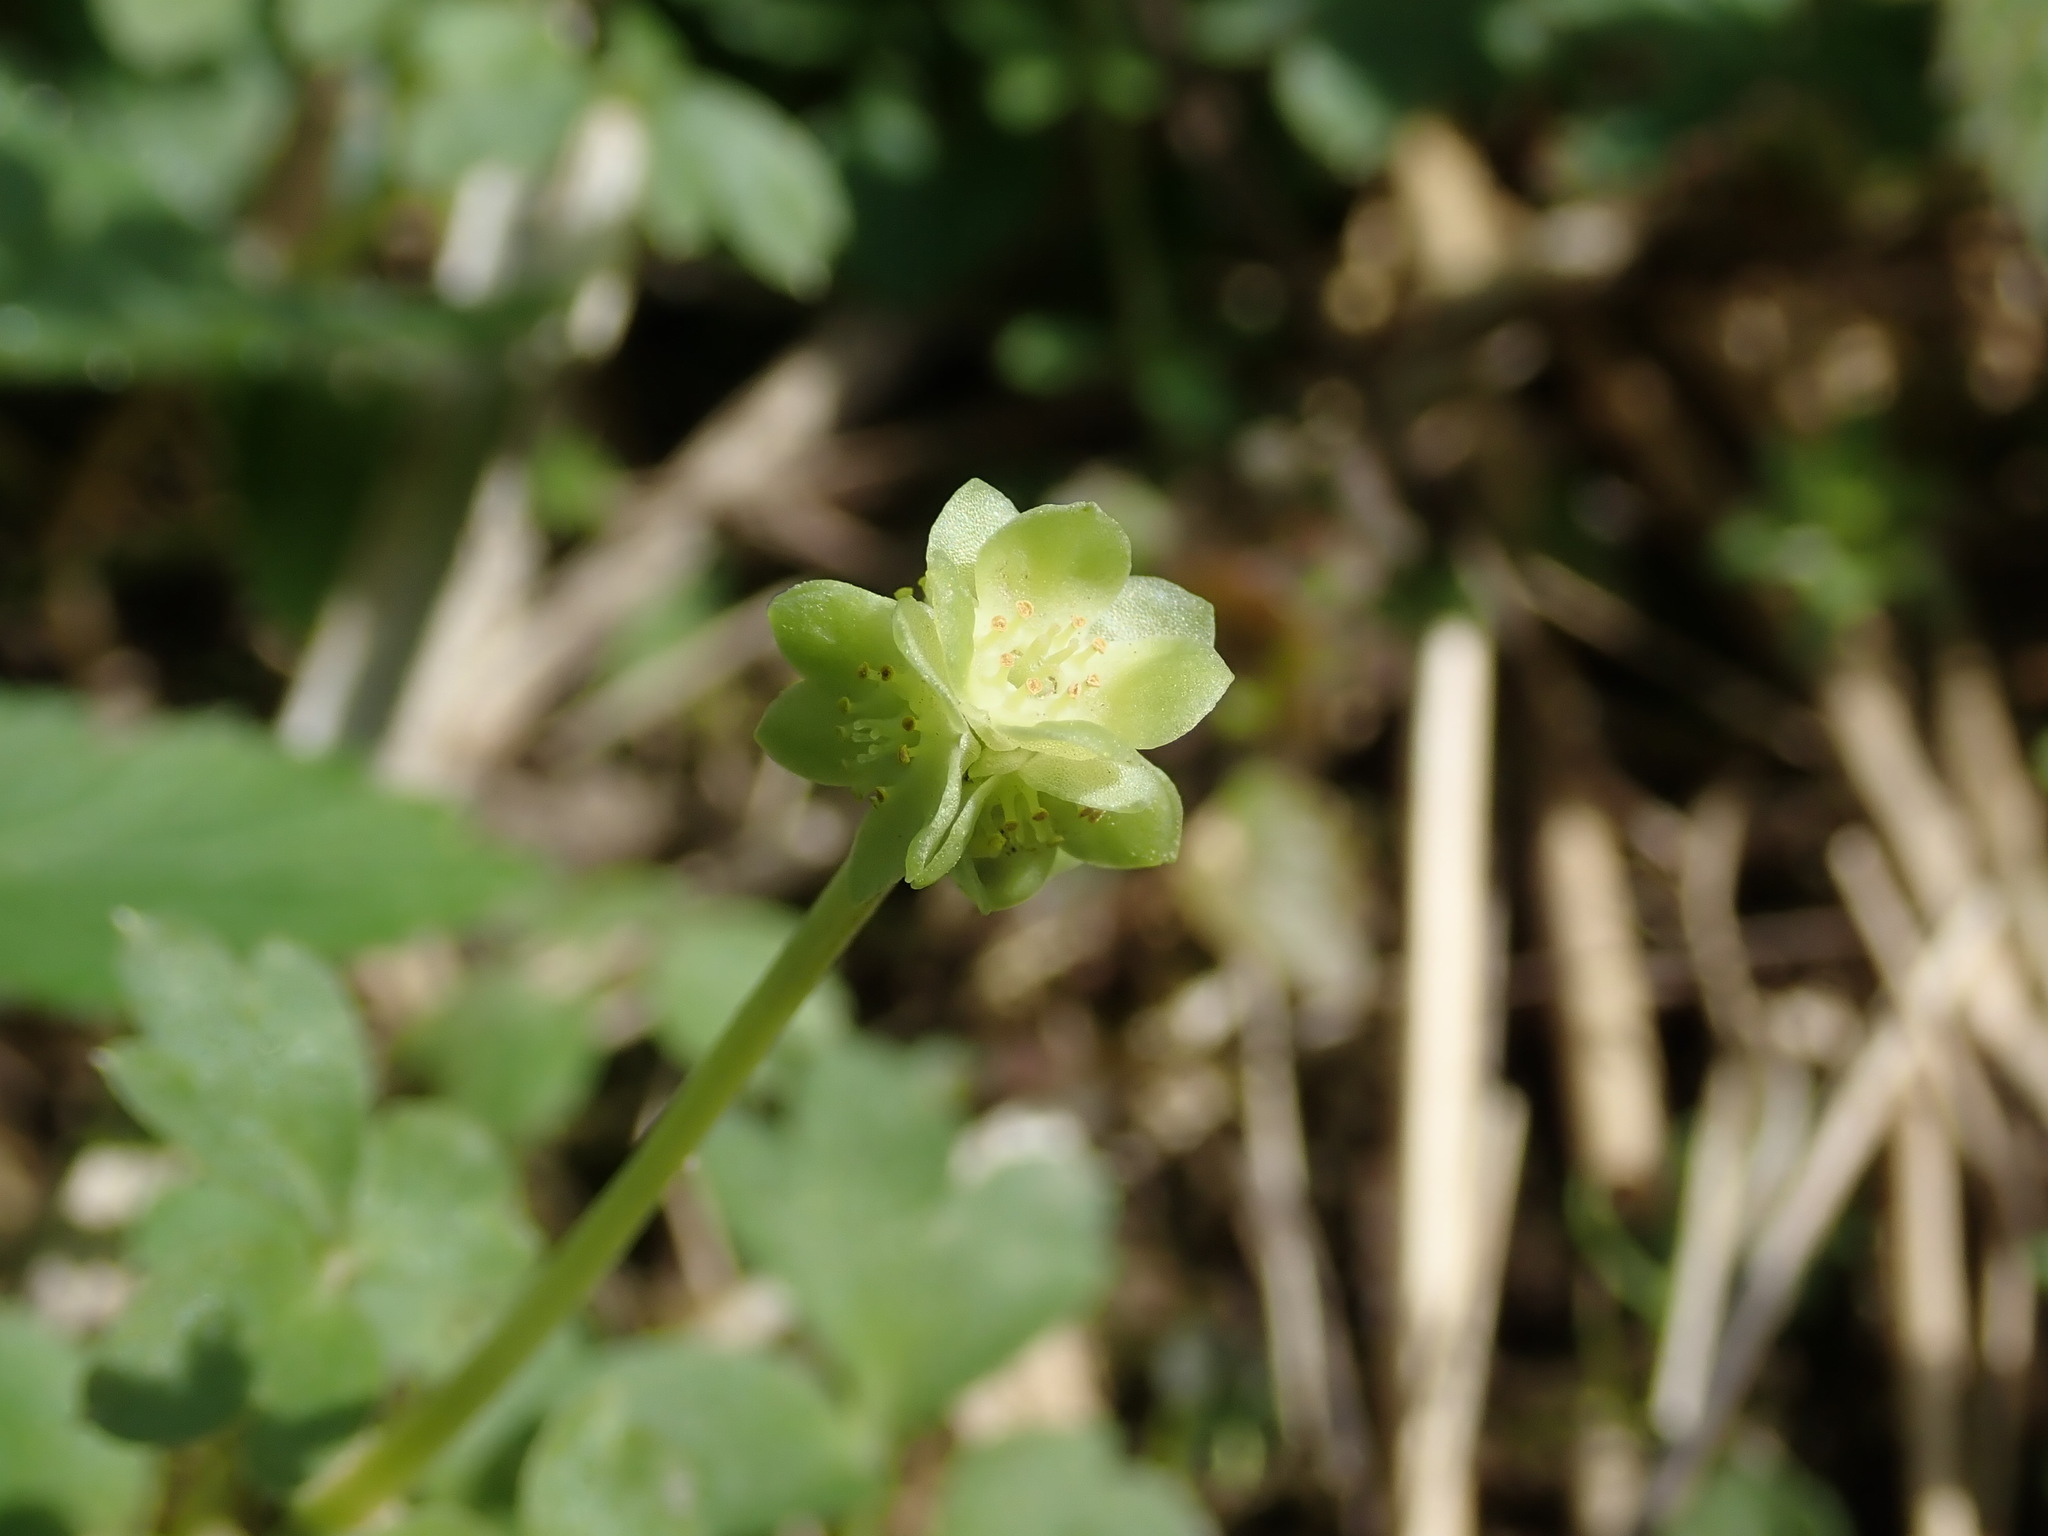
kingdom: Plantae
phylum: Tracheophyta
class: Magnoliopsida
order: Dipsacales
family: Viburnaceae
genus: Adoxa
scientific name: Adoxa moschatellina
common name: Moschatel
